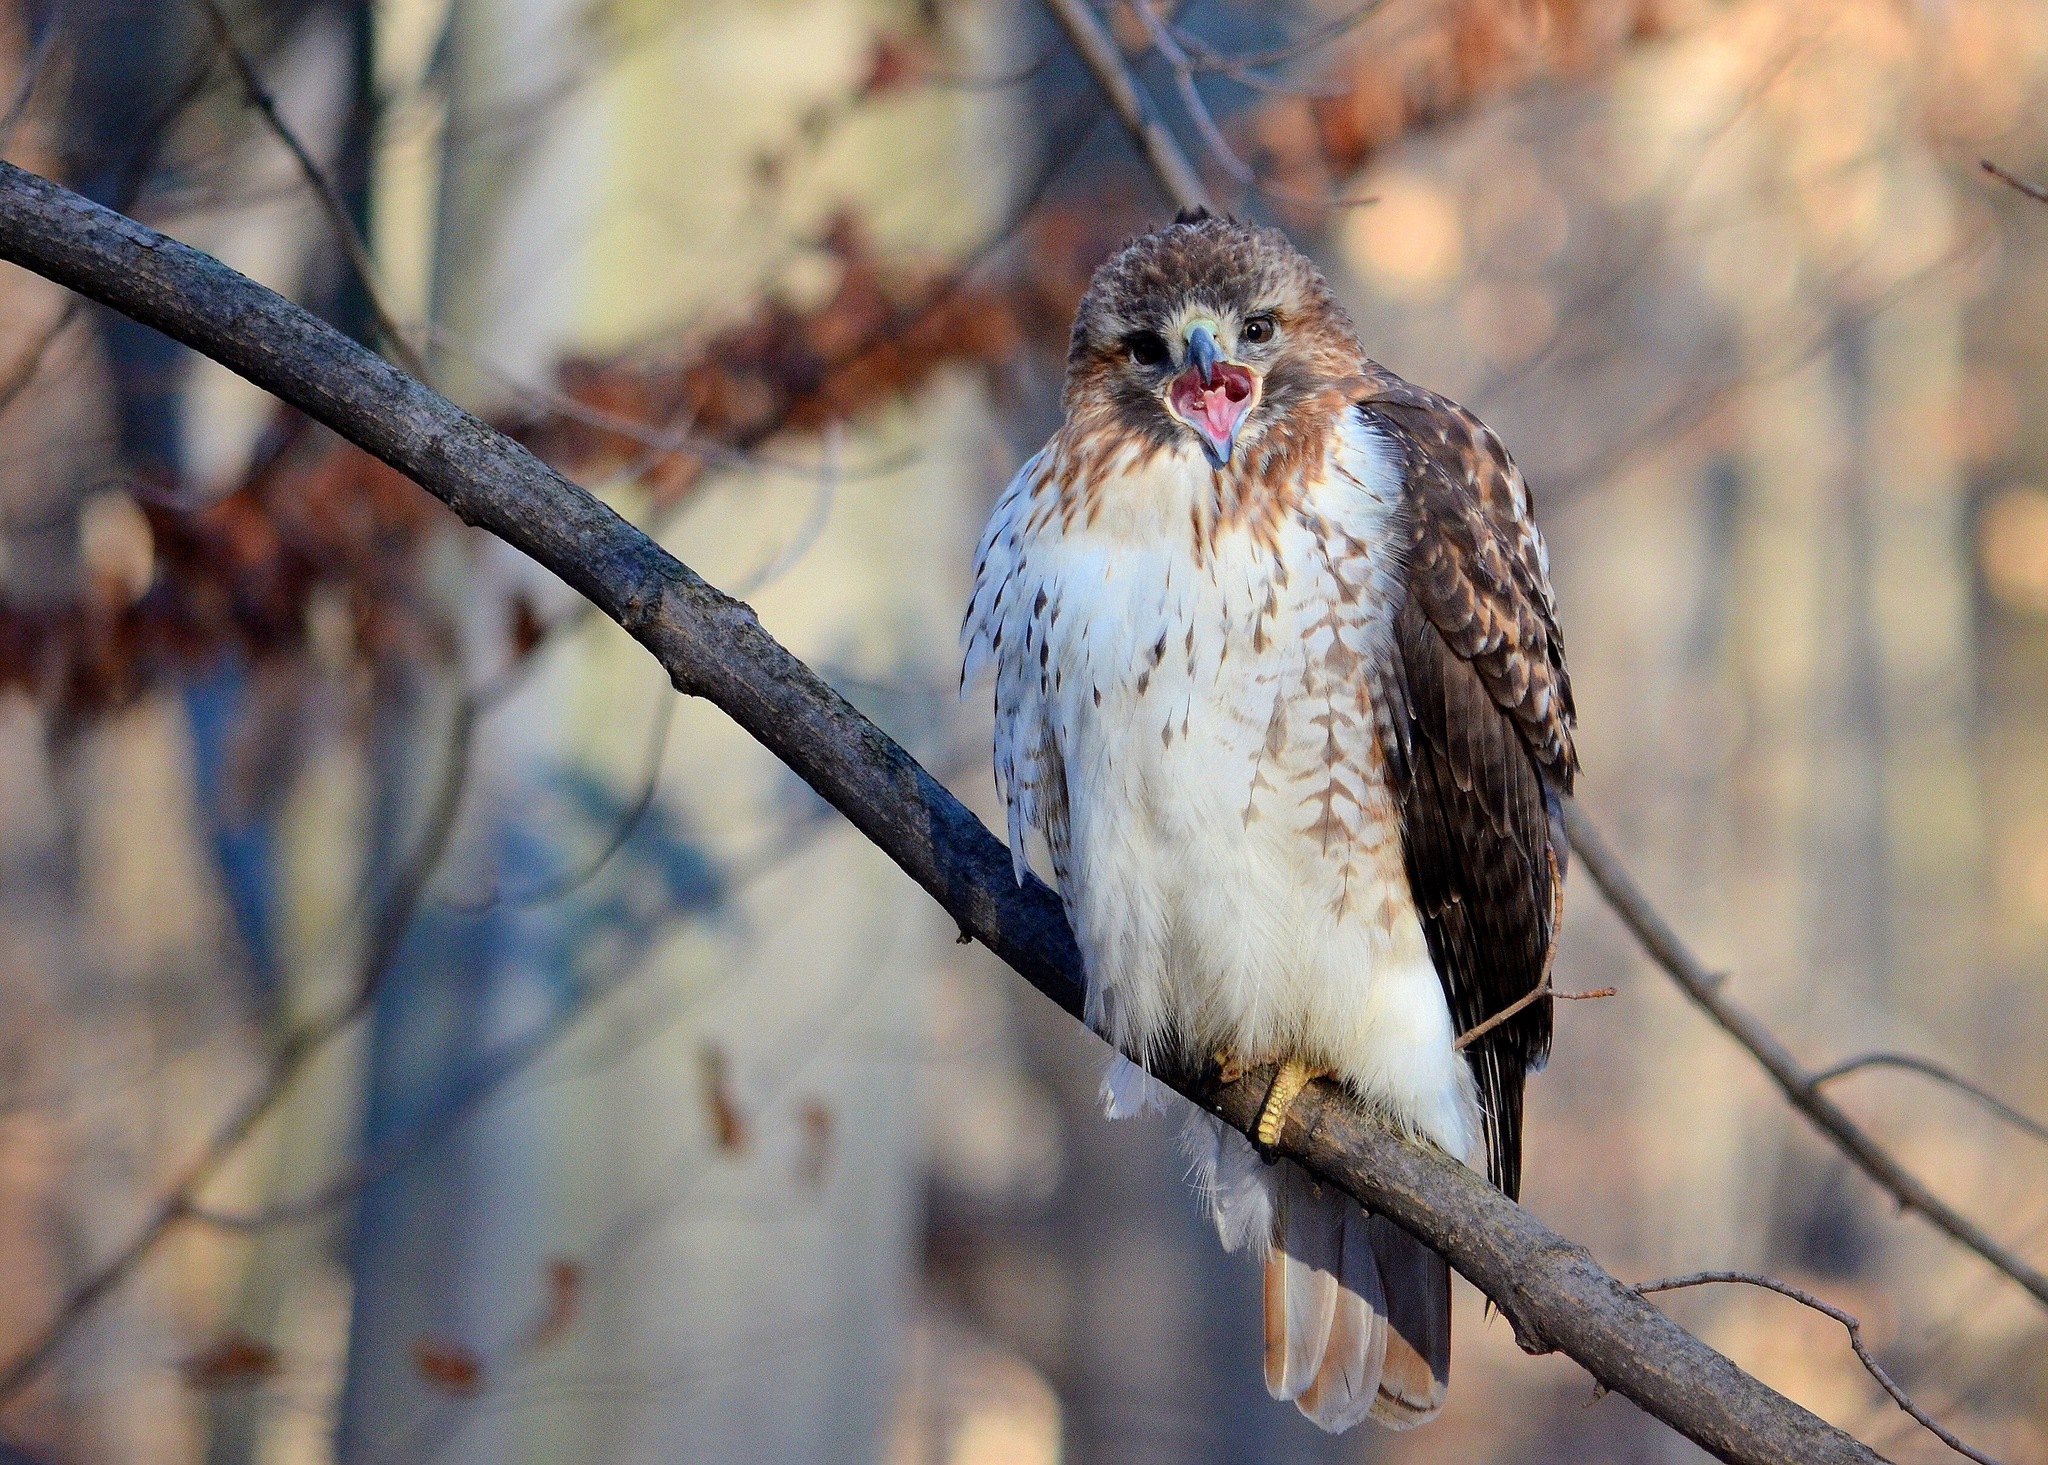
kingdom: Animalia
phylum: Chordata
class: Aves
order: Accipitriformes
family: Accipitridae
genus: Buteo
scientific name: Buteo jamaicensis
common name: Red-tailed hawk
